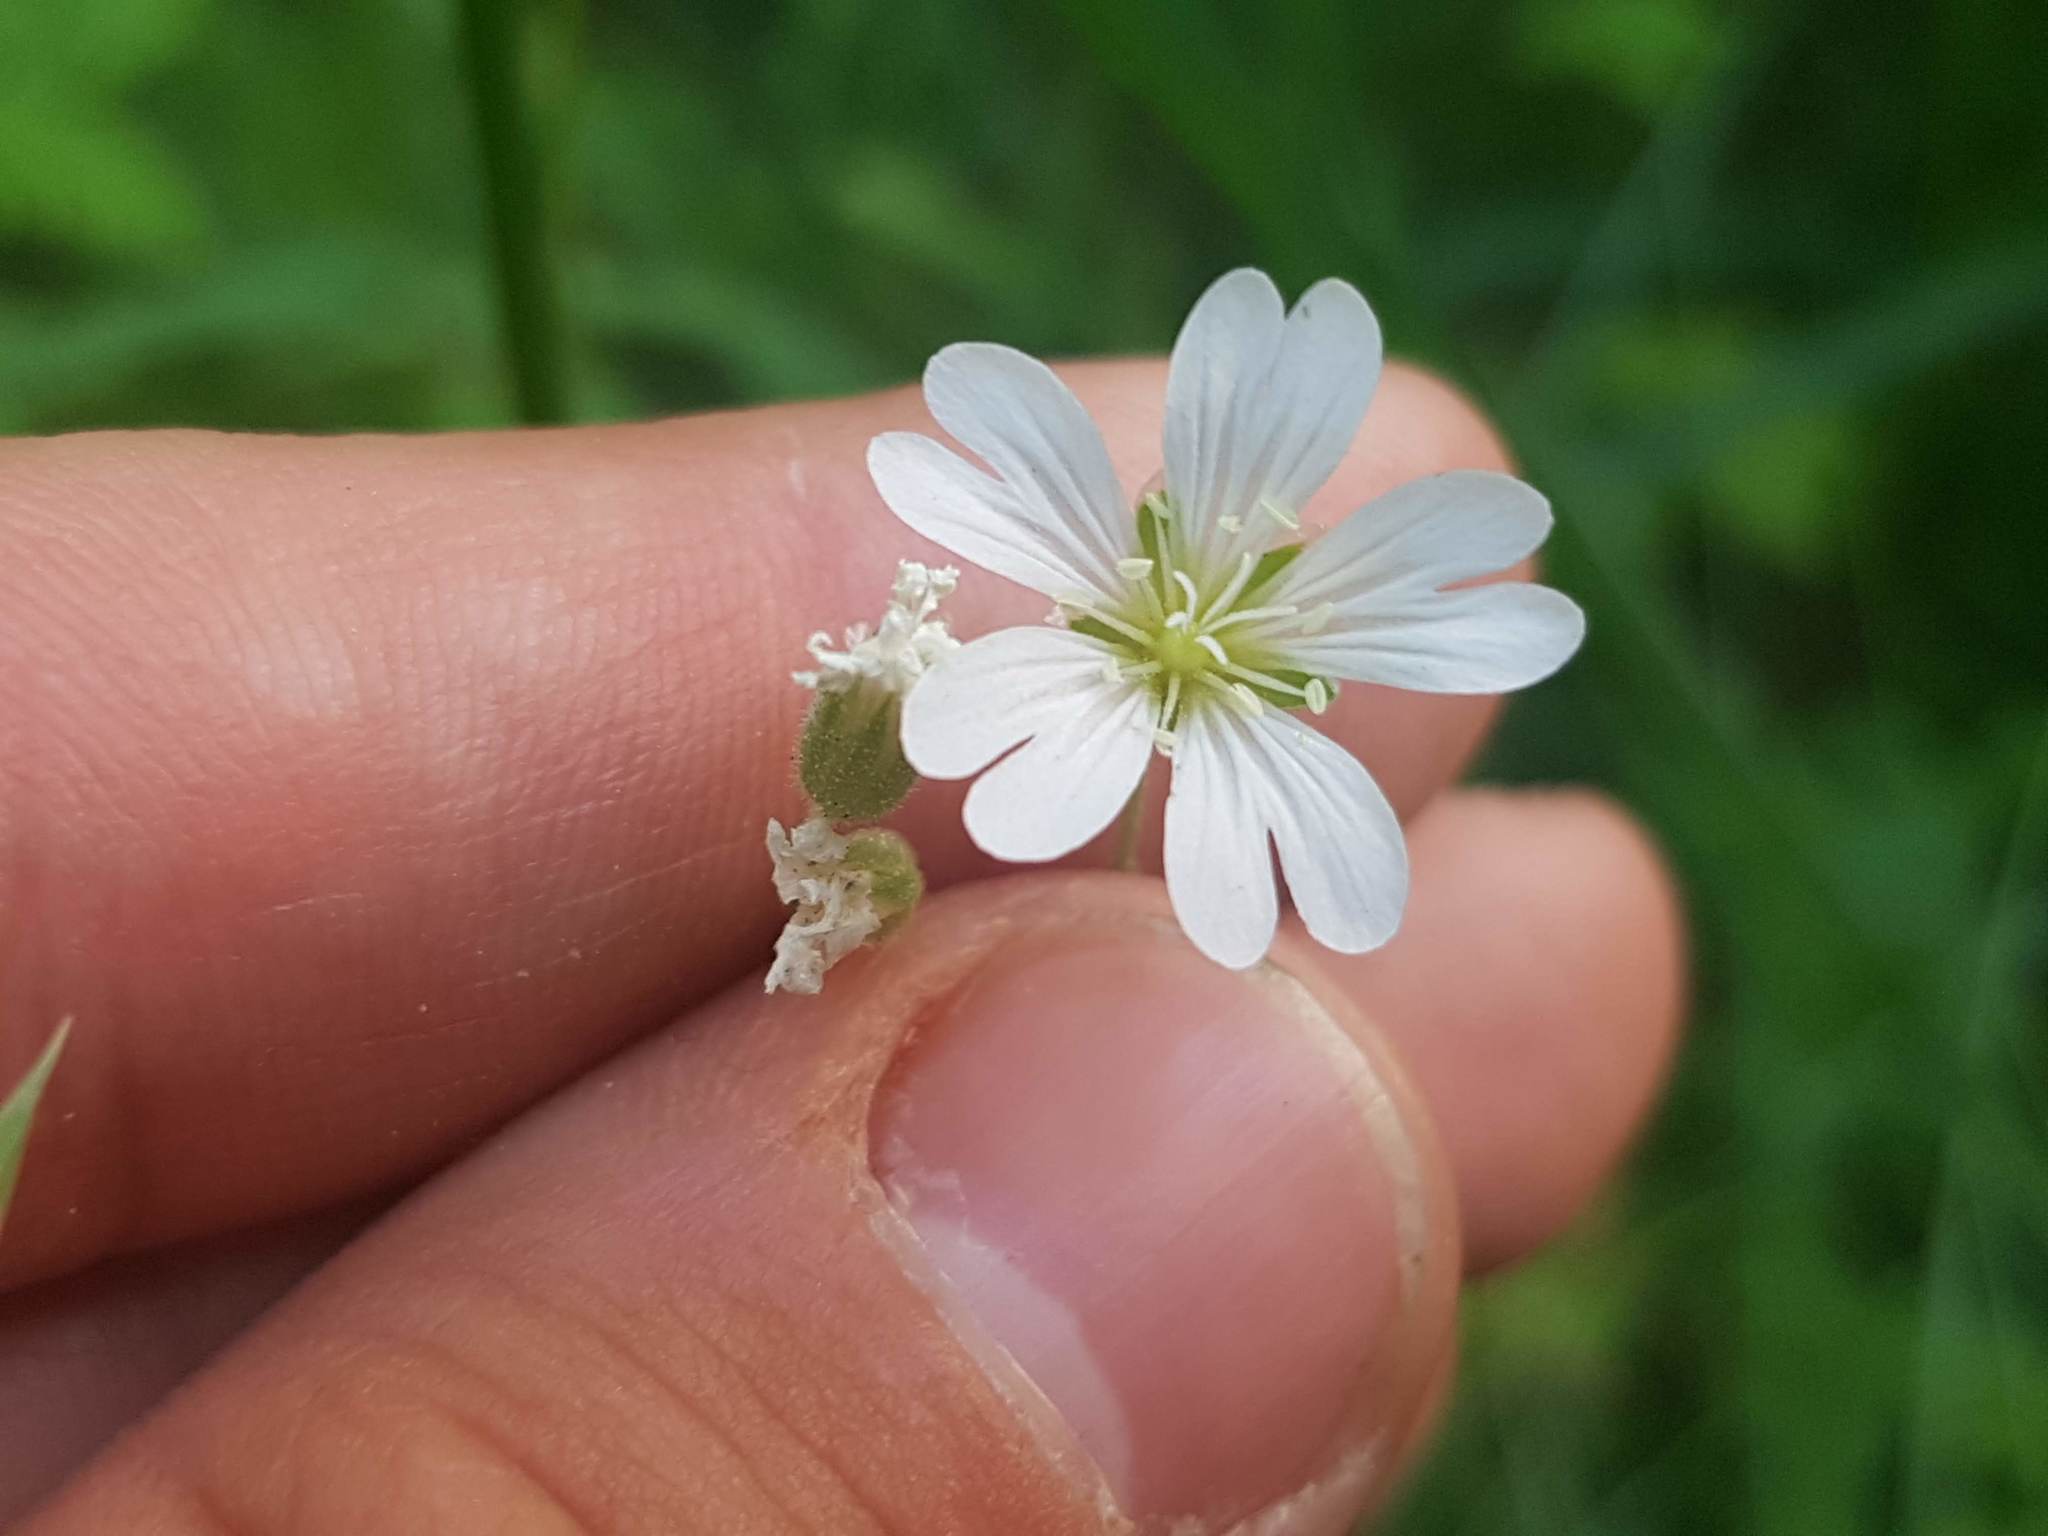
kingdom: Plantae
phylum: Tracheophyta
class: Magnoliopsida
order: Caryophyllales
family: Caryophyllaceae
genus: Cerastium
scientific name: Cerastium arvense
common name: Field mouse-ear
